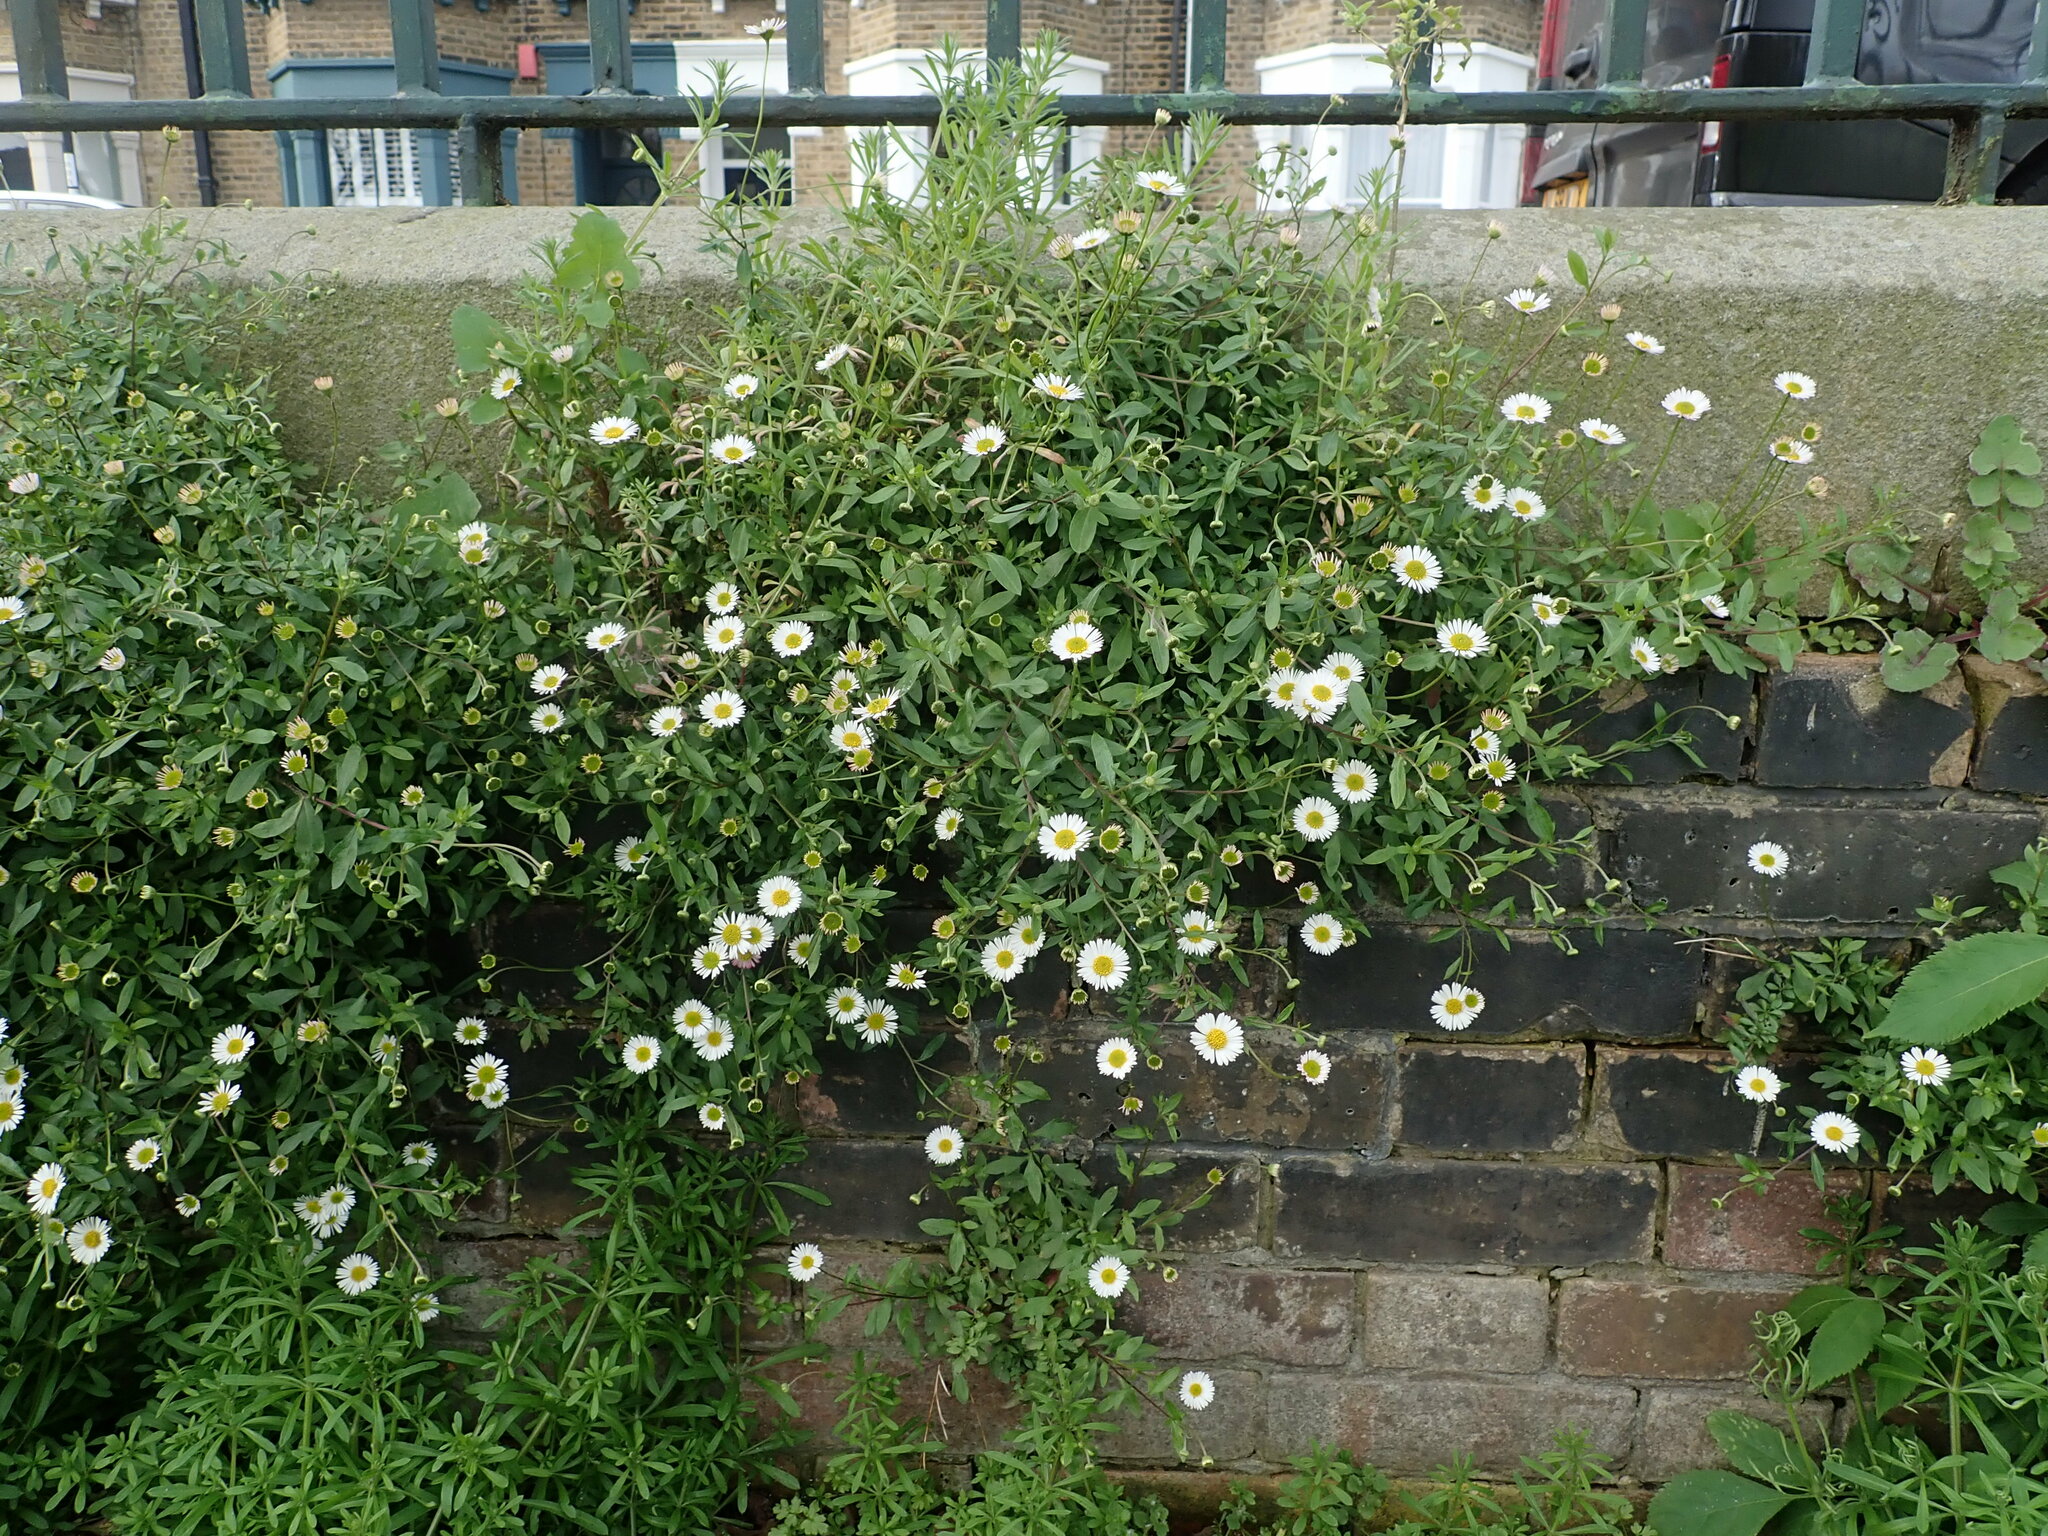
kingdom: Plantae
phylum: Tracheophyta
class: Magnoliopsida
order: Asterales
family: Asteraceae
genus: Erigeron
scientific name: Erigeron karvinskianus
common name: Mexican fleabane
